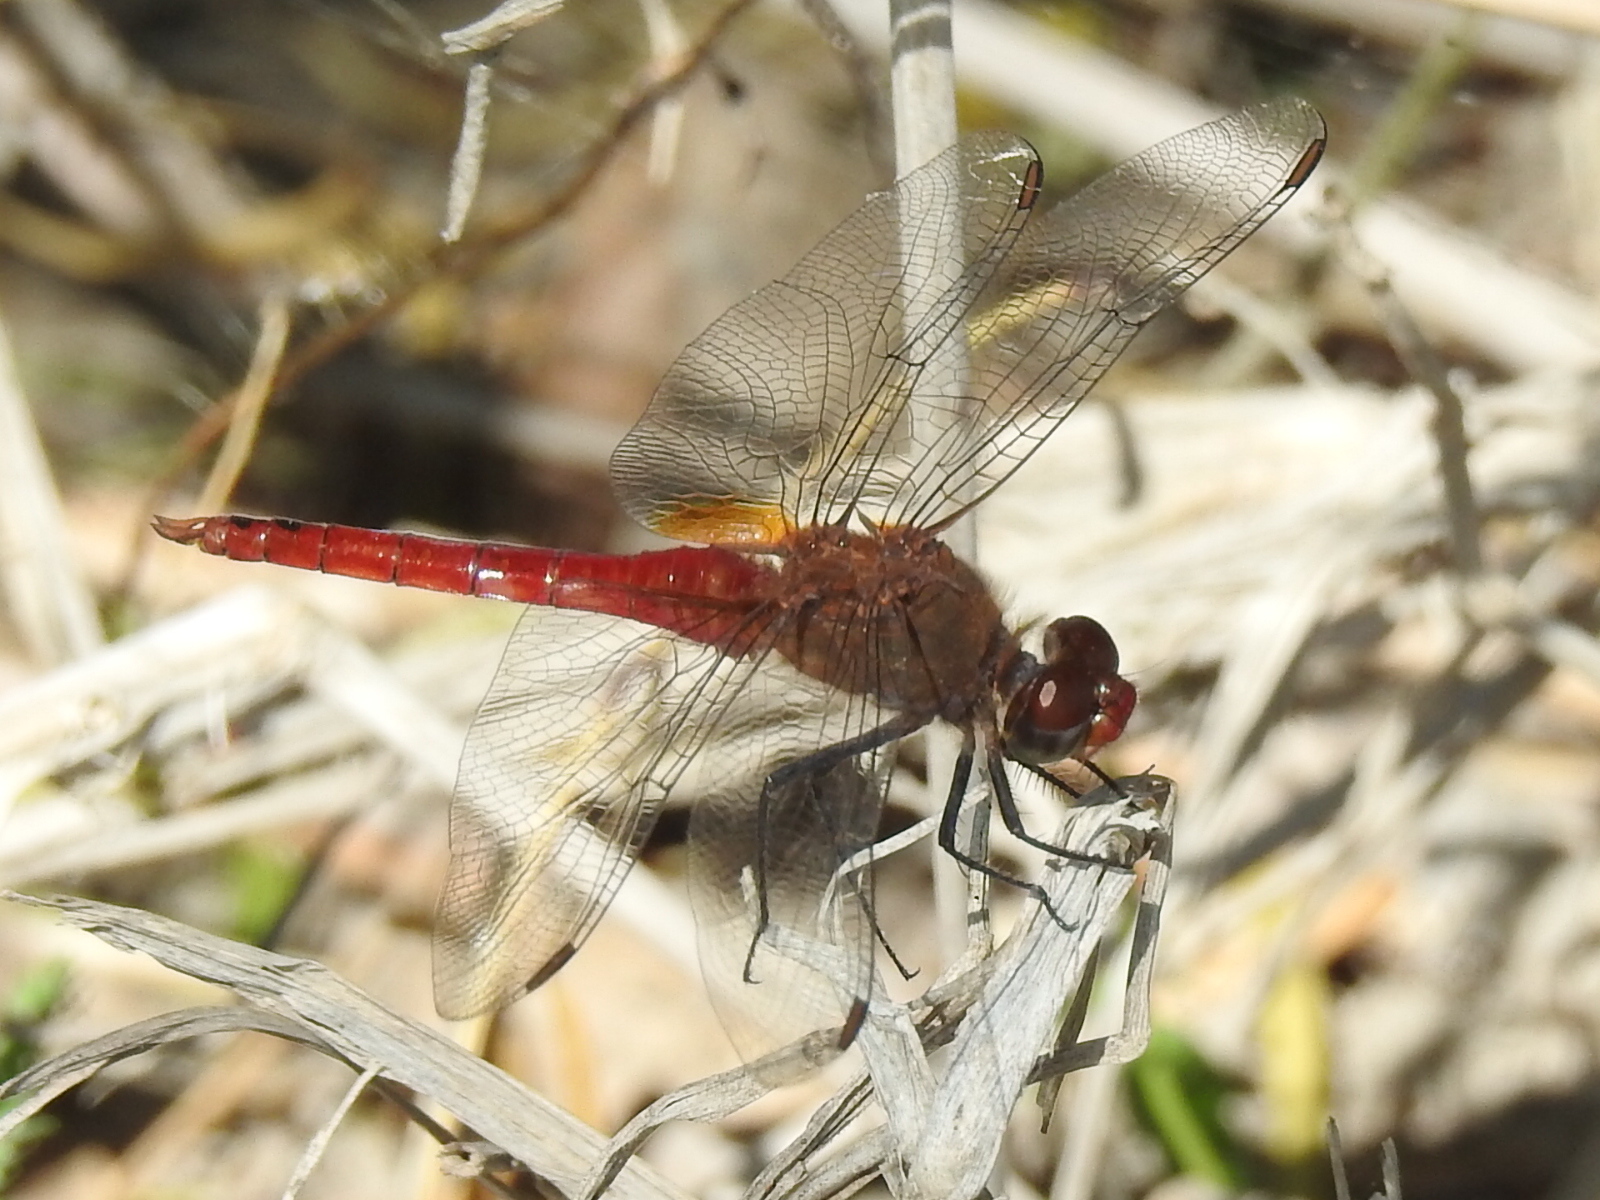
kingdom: Animalia
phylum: Arthropoda
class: Insecta
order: Odonata
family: Libellulidae
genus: Brachymesia
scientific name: Brachymesia furcata
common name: Red-taled pennant
